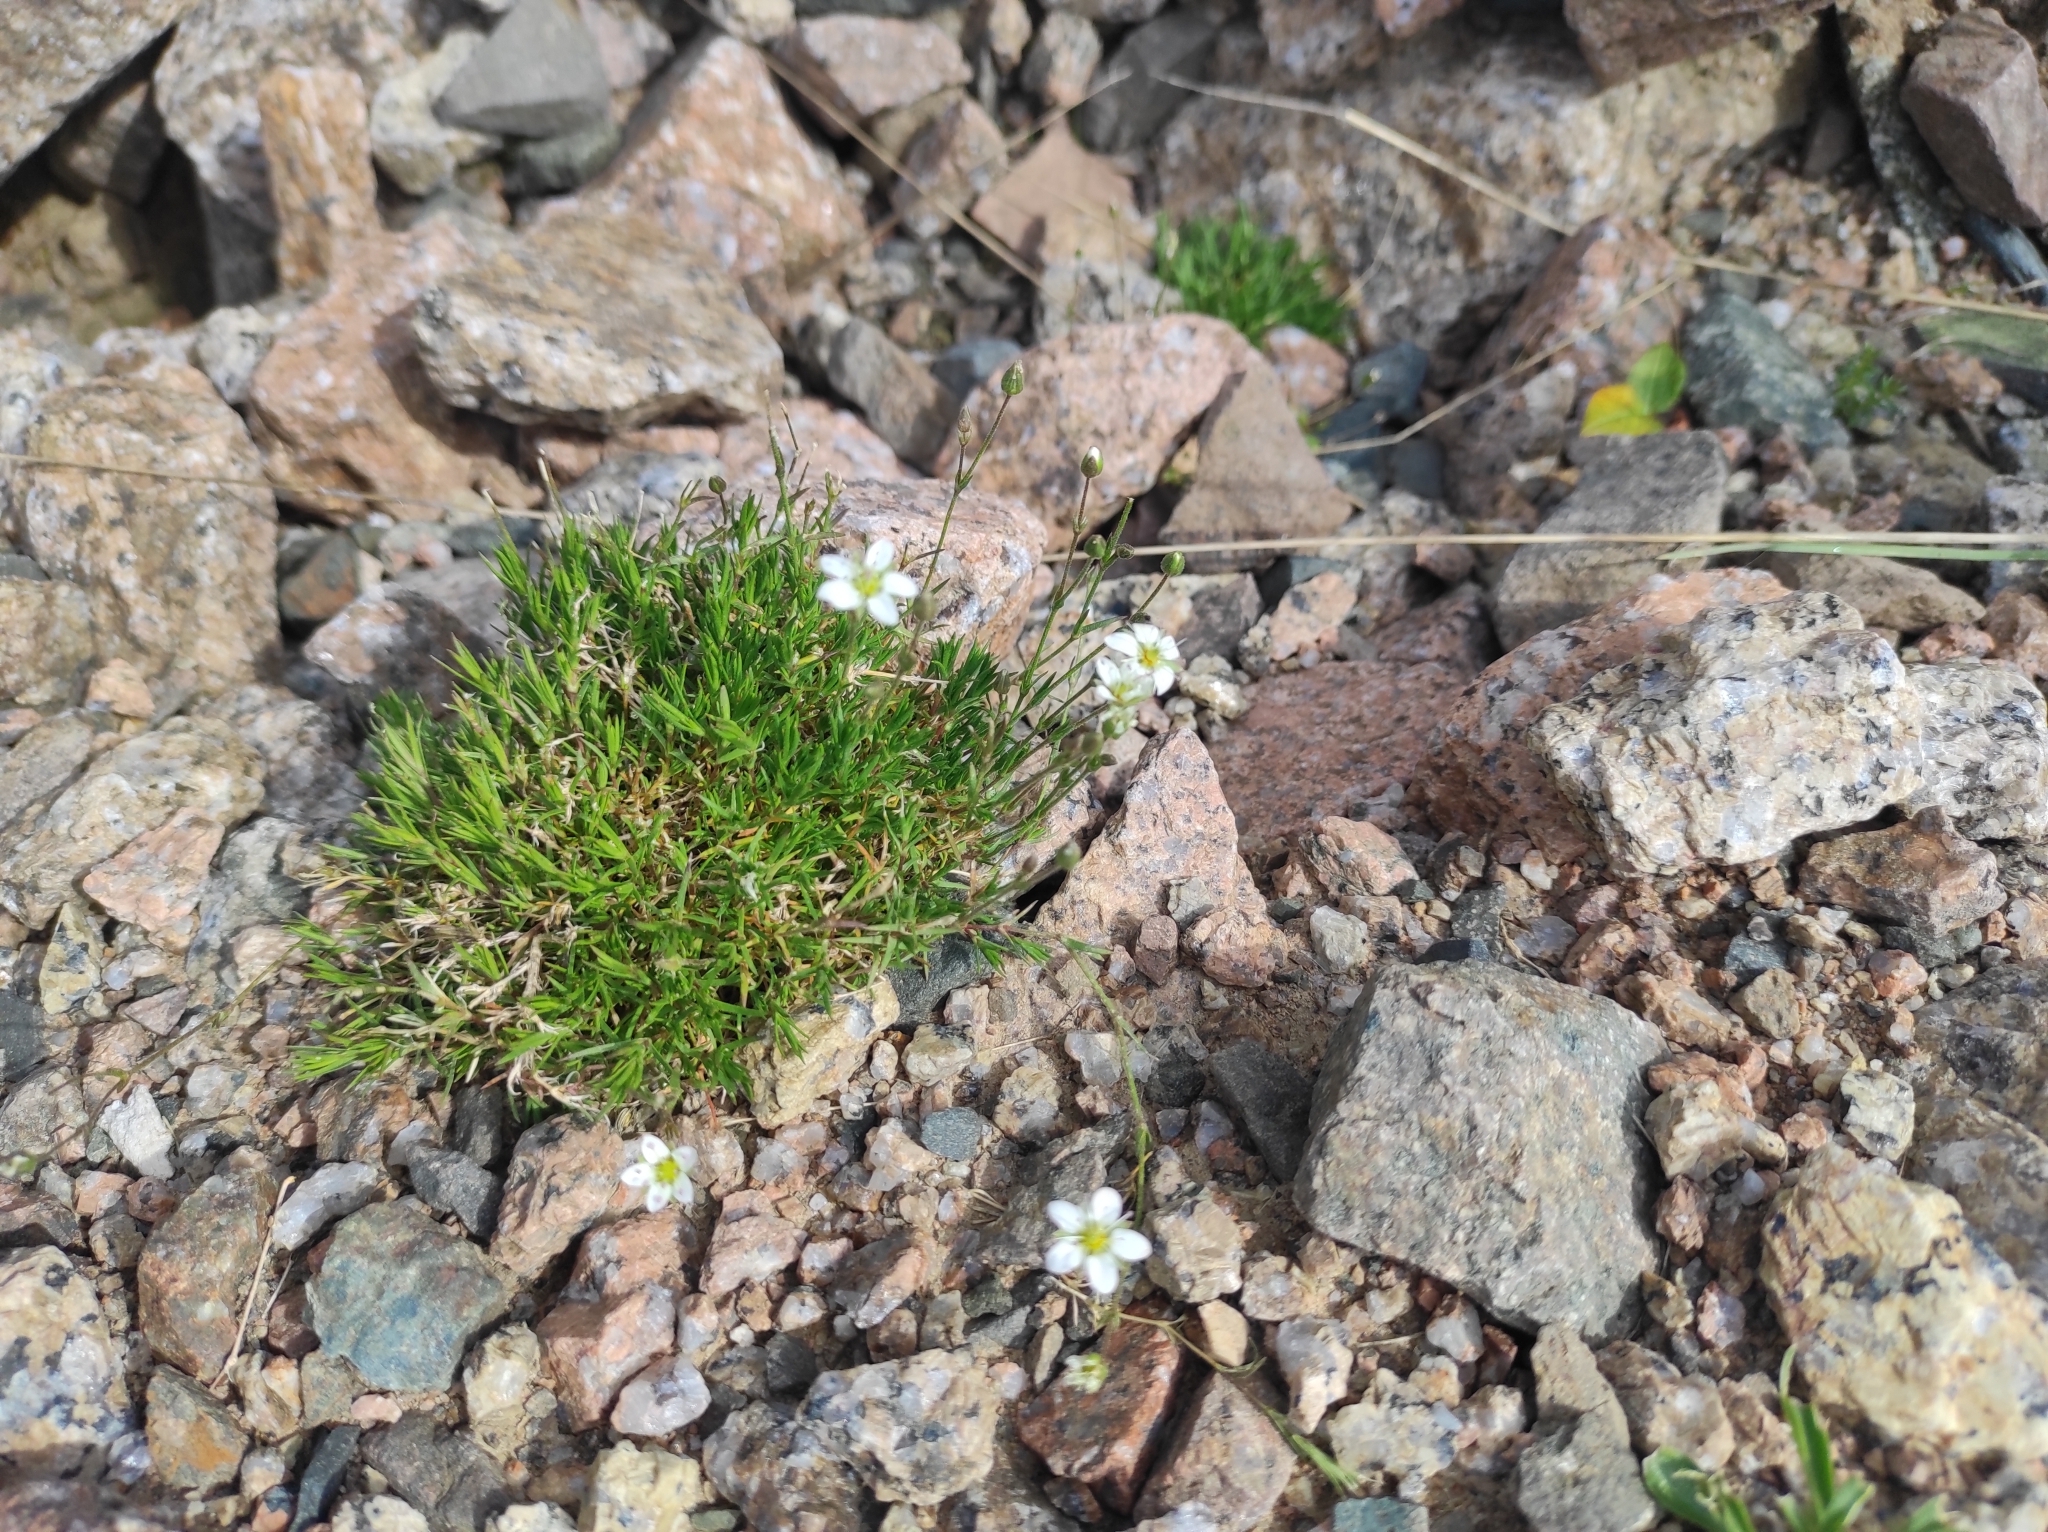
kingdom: Plantae
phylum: Tracheophyta
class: Magnoliopsida
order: Caryophyllales
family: Caryophyllaceae
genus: Sabulina
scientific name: Sabulina verna
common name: Spring sandwort
